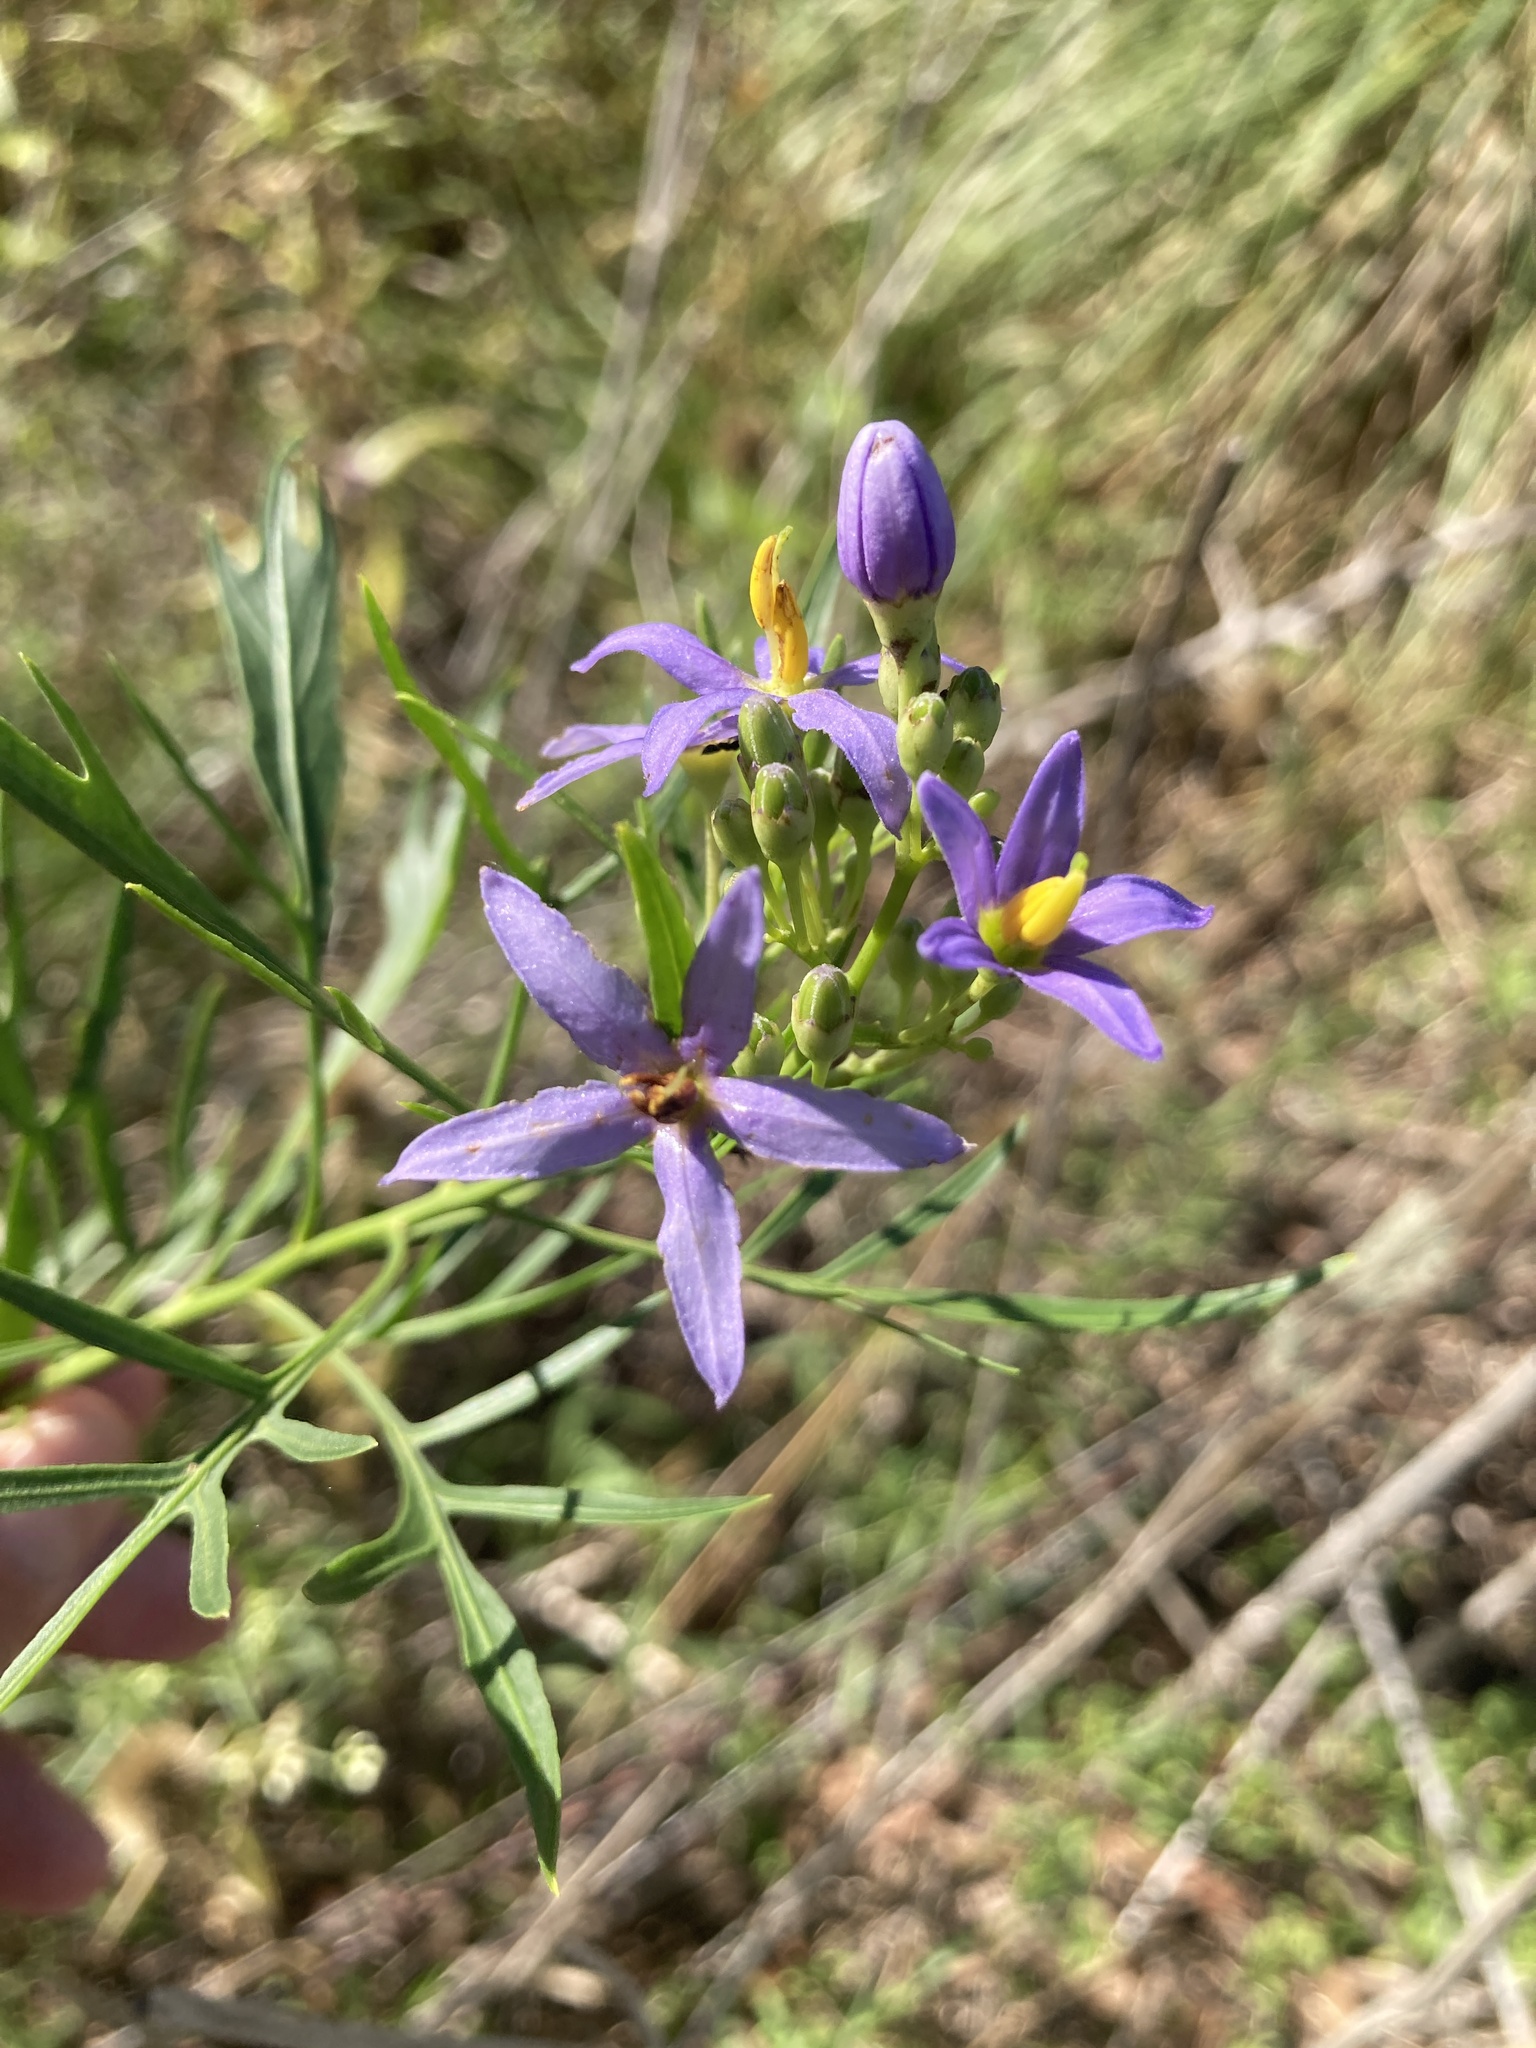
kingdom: Plantae
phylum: Tracheophyta
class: Magnoliopsida
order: Solanales
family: Solanaceae
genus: Solanum
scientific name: Solanum angustifidum
